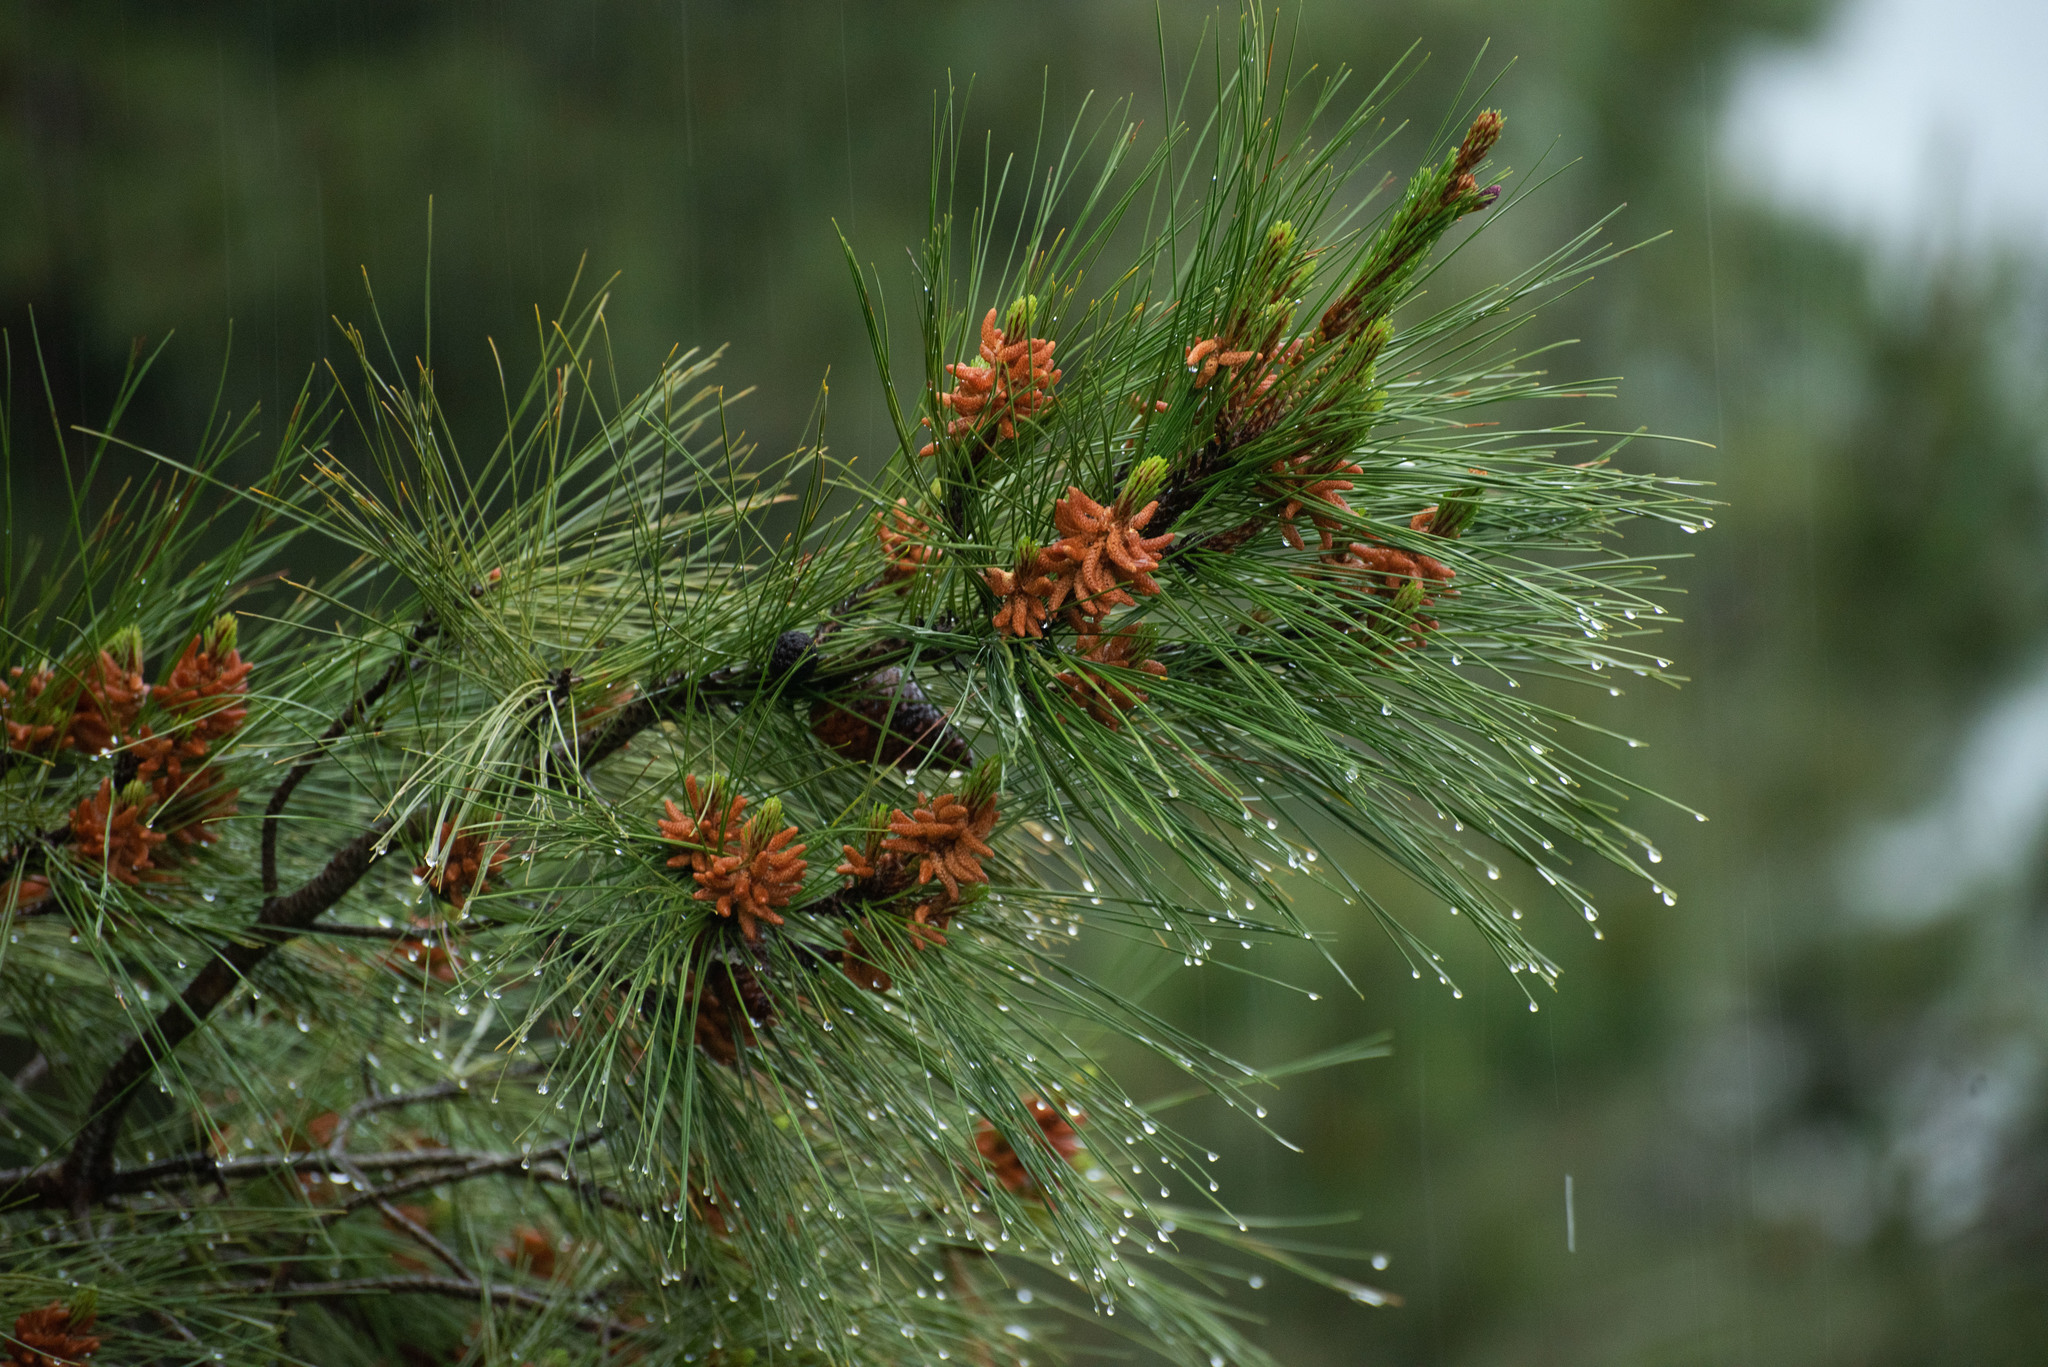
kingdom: Plantae
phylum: Tracheophyta
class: Pinopsida
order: Pinales
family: Pinaceae
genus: Pinus
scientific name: Pinus brutia
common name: Turkish pine
